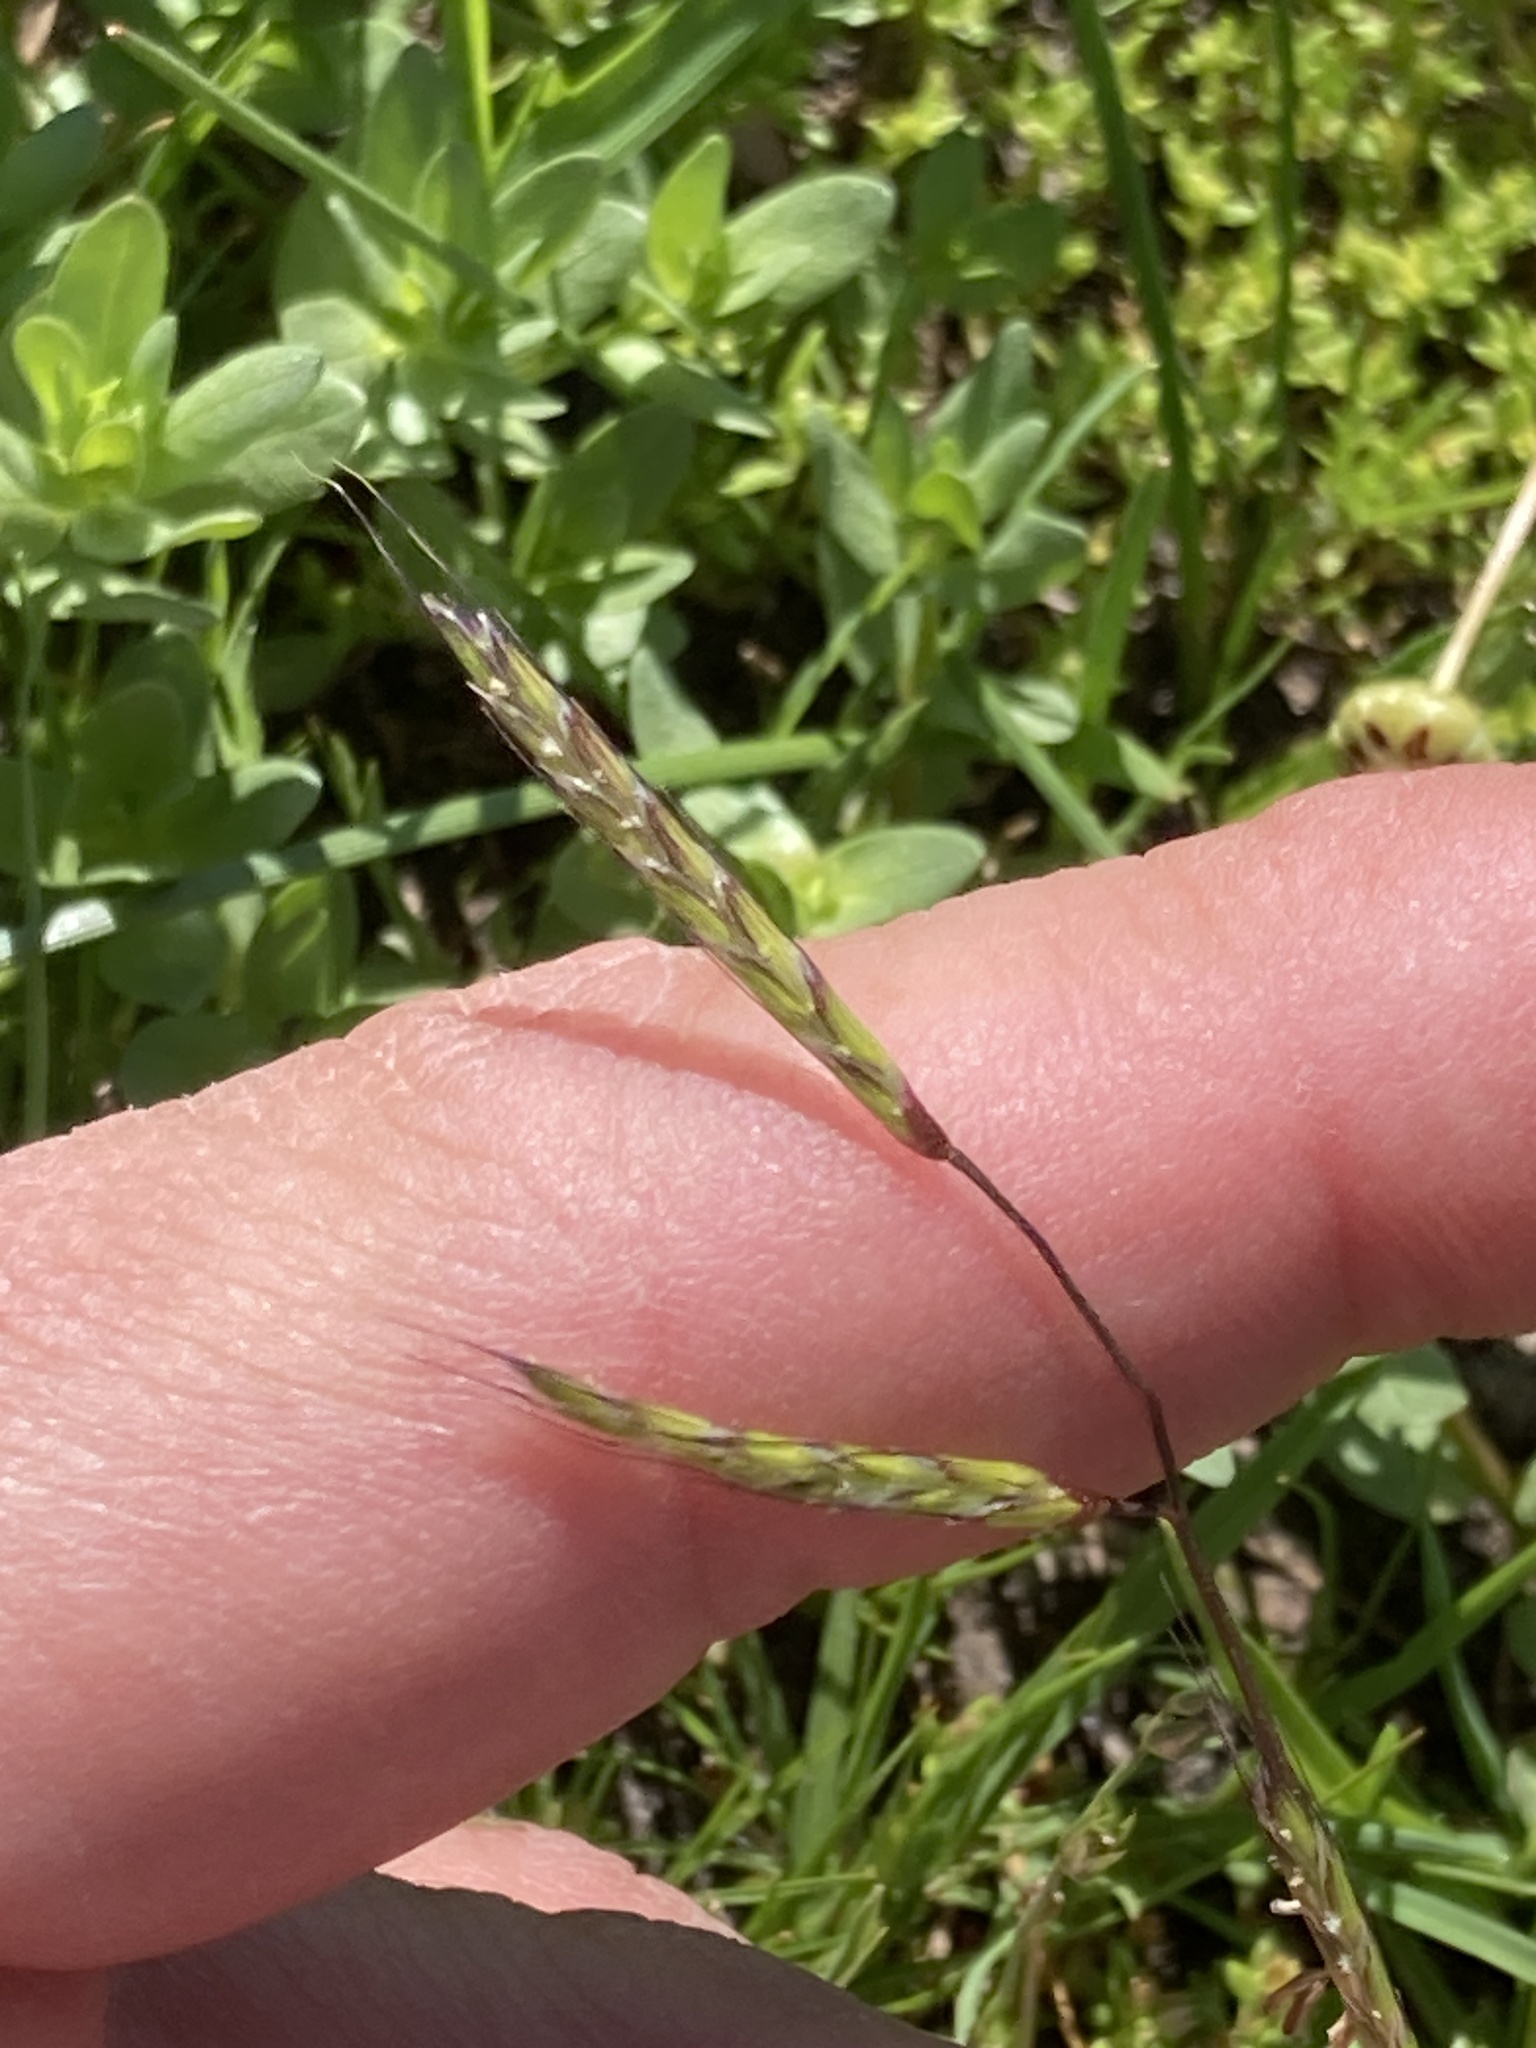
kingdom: Plantae
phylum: Tracheophyta
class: Liliopsida
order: Poales
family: Poaceae
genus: Pleuropogon
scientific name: Pleuropogon californicus
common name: California semaphore grass
